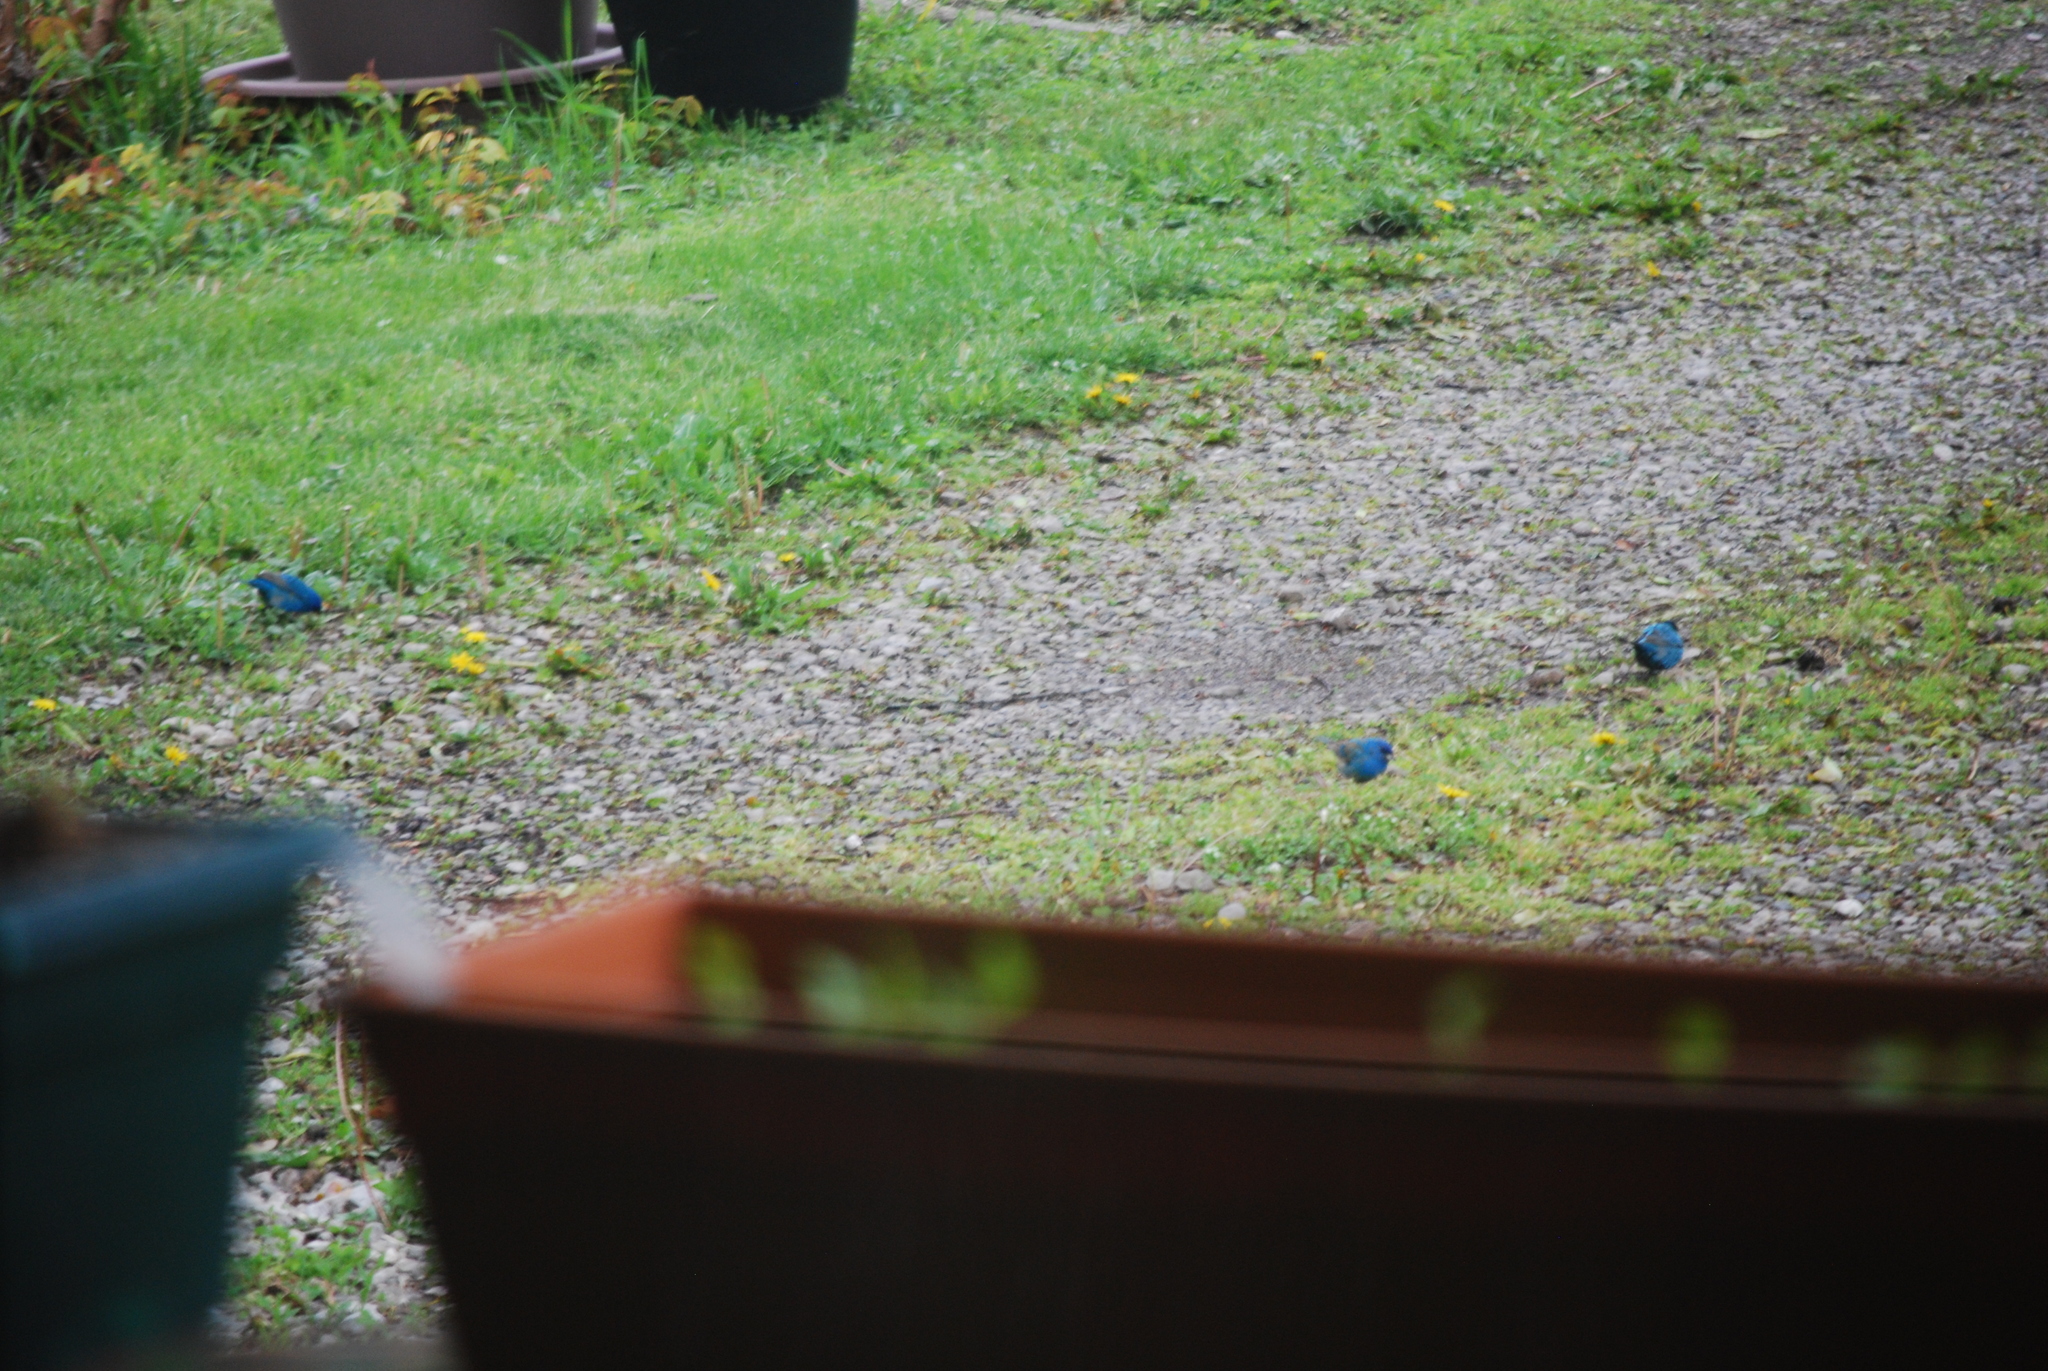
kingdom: Animalia
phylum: Chordata
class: Aves
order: Passeriformes
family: Cardinalidae
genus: Passerina
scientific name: Passerina cyanea
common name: Indigo bunting
